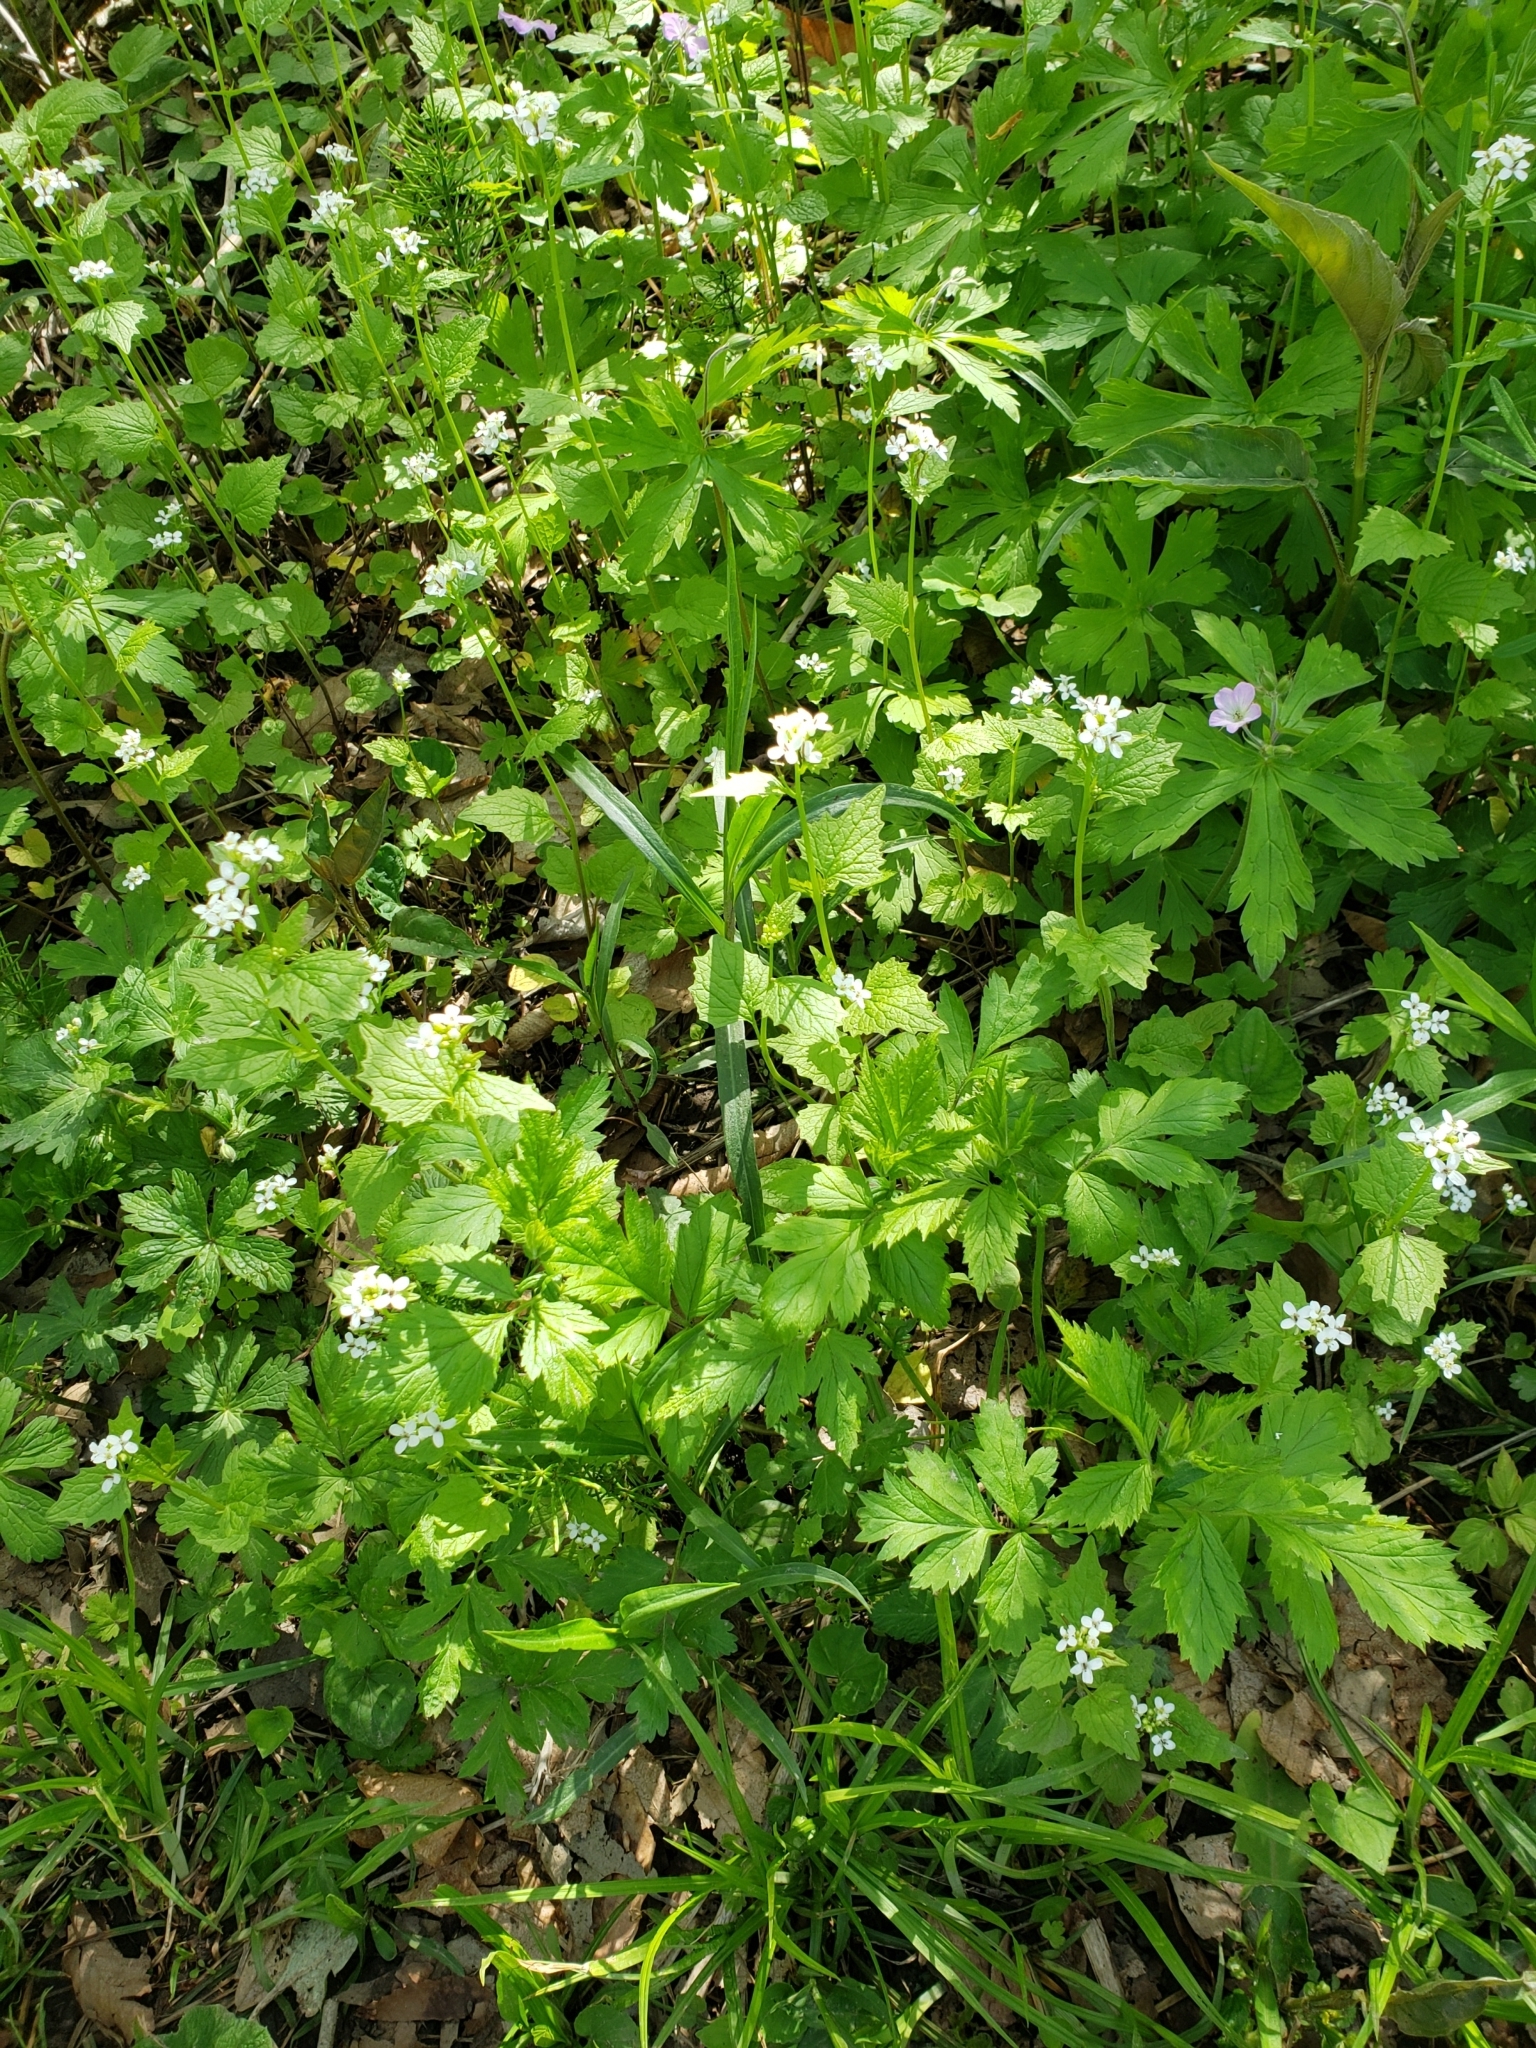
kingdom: Plantae
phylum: Tracheophyta
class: Magnoliopsida
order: Brassicales
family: Brassicaceae
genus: Alliaria
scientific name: Alliaria petiolata
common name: Garlic mustard
